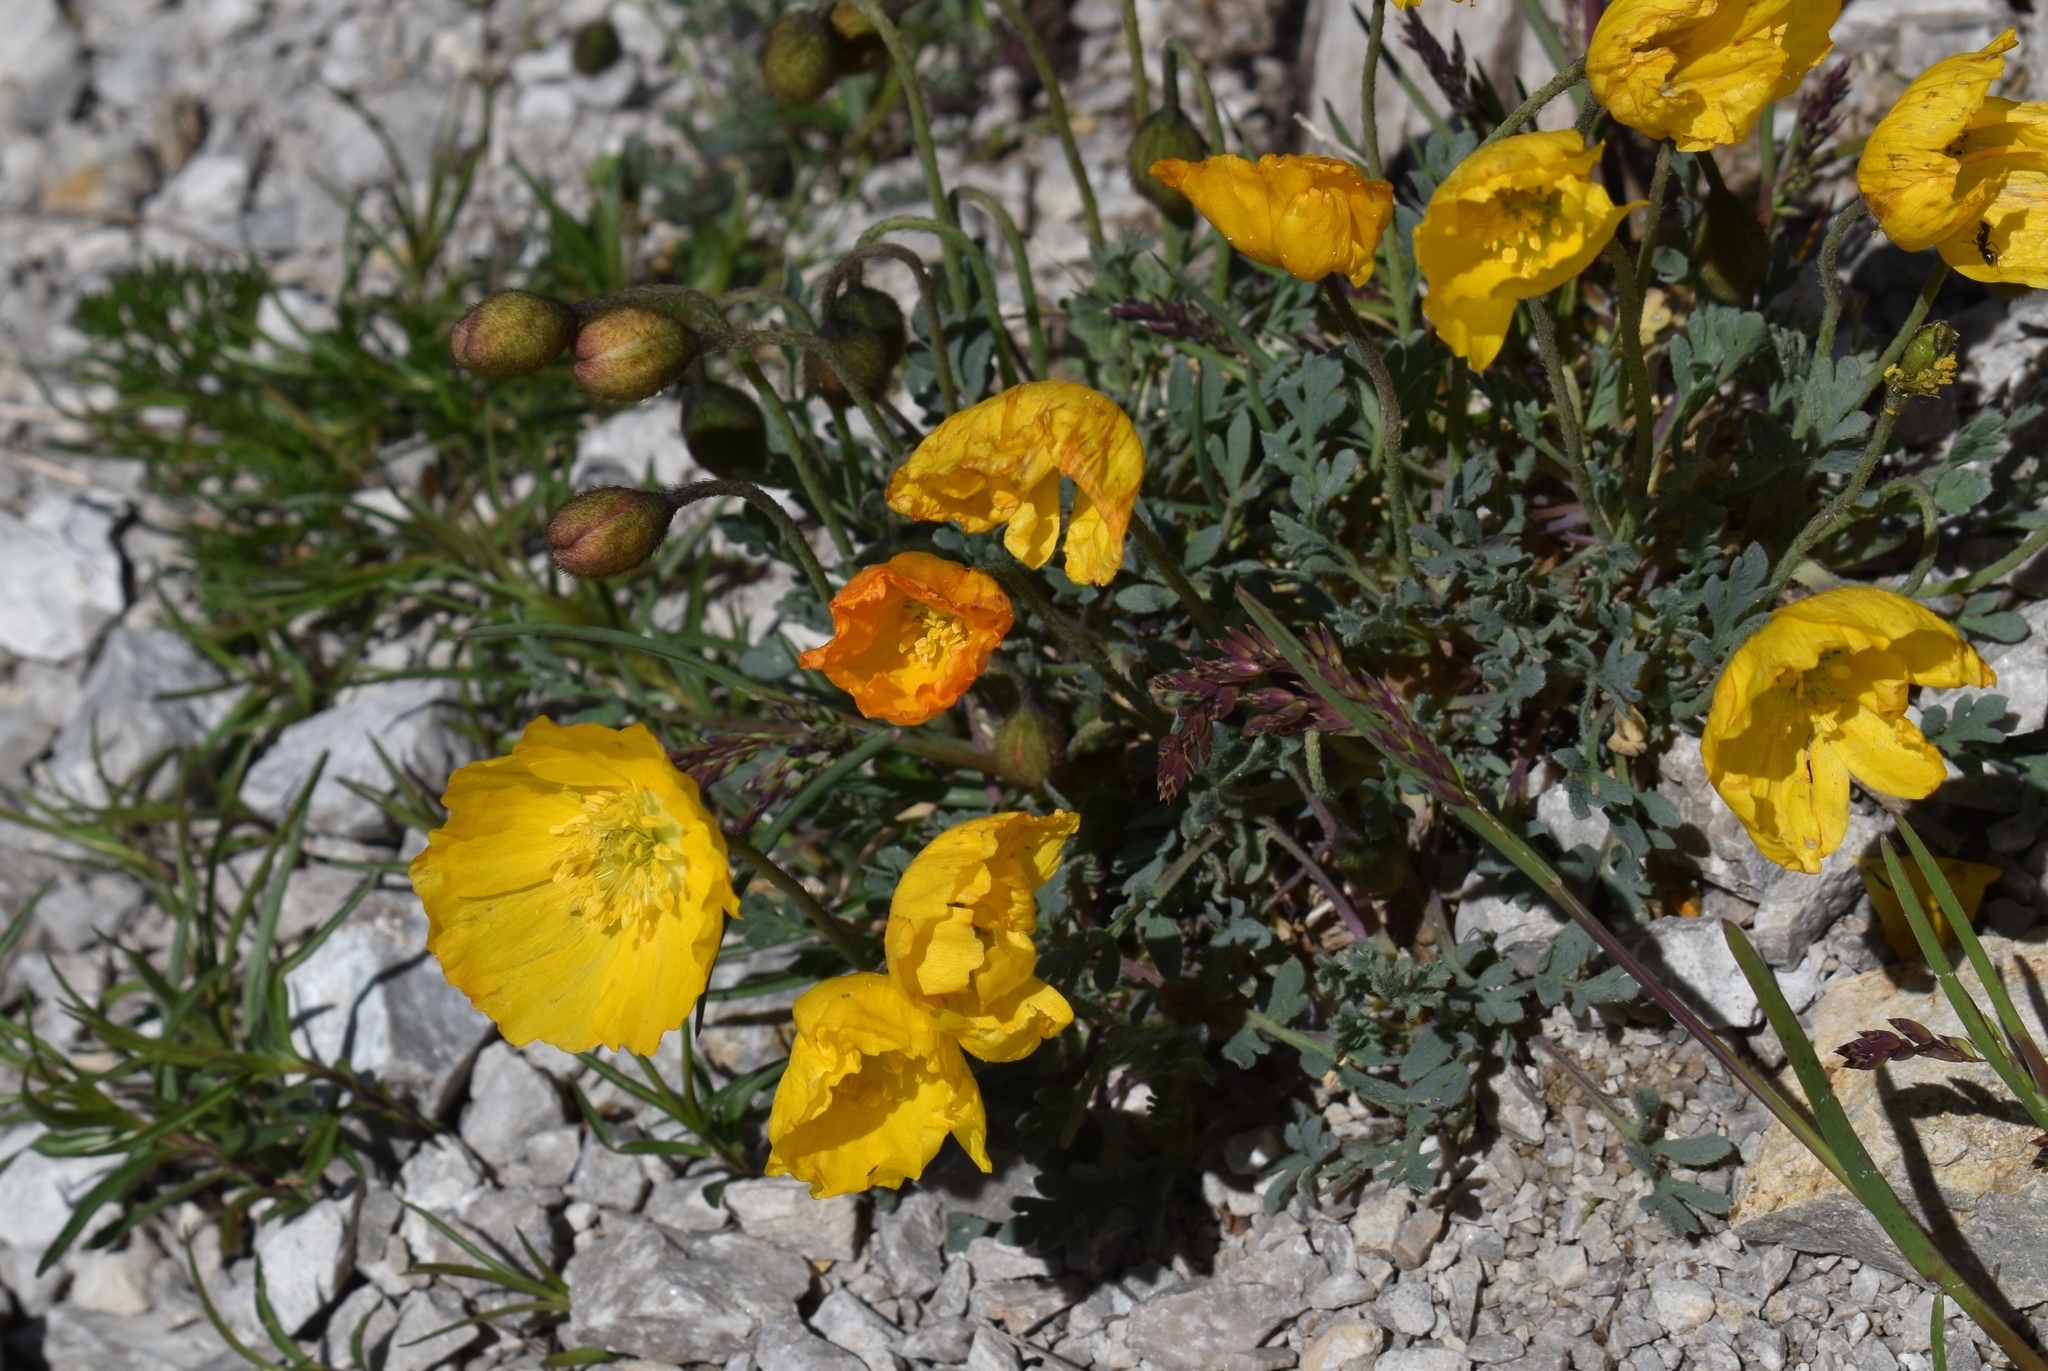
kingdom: Plantae
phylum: Tracheophyta
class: Magnoliopsida
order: Ranunculales
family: Papaveraceae
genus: Papaver
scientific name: Papaver alpinum
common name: Austrian poppy
